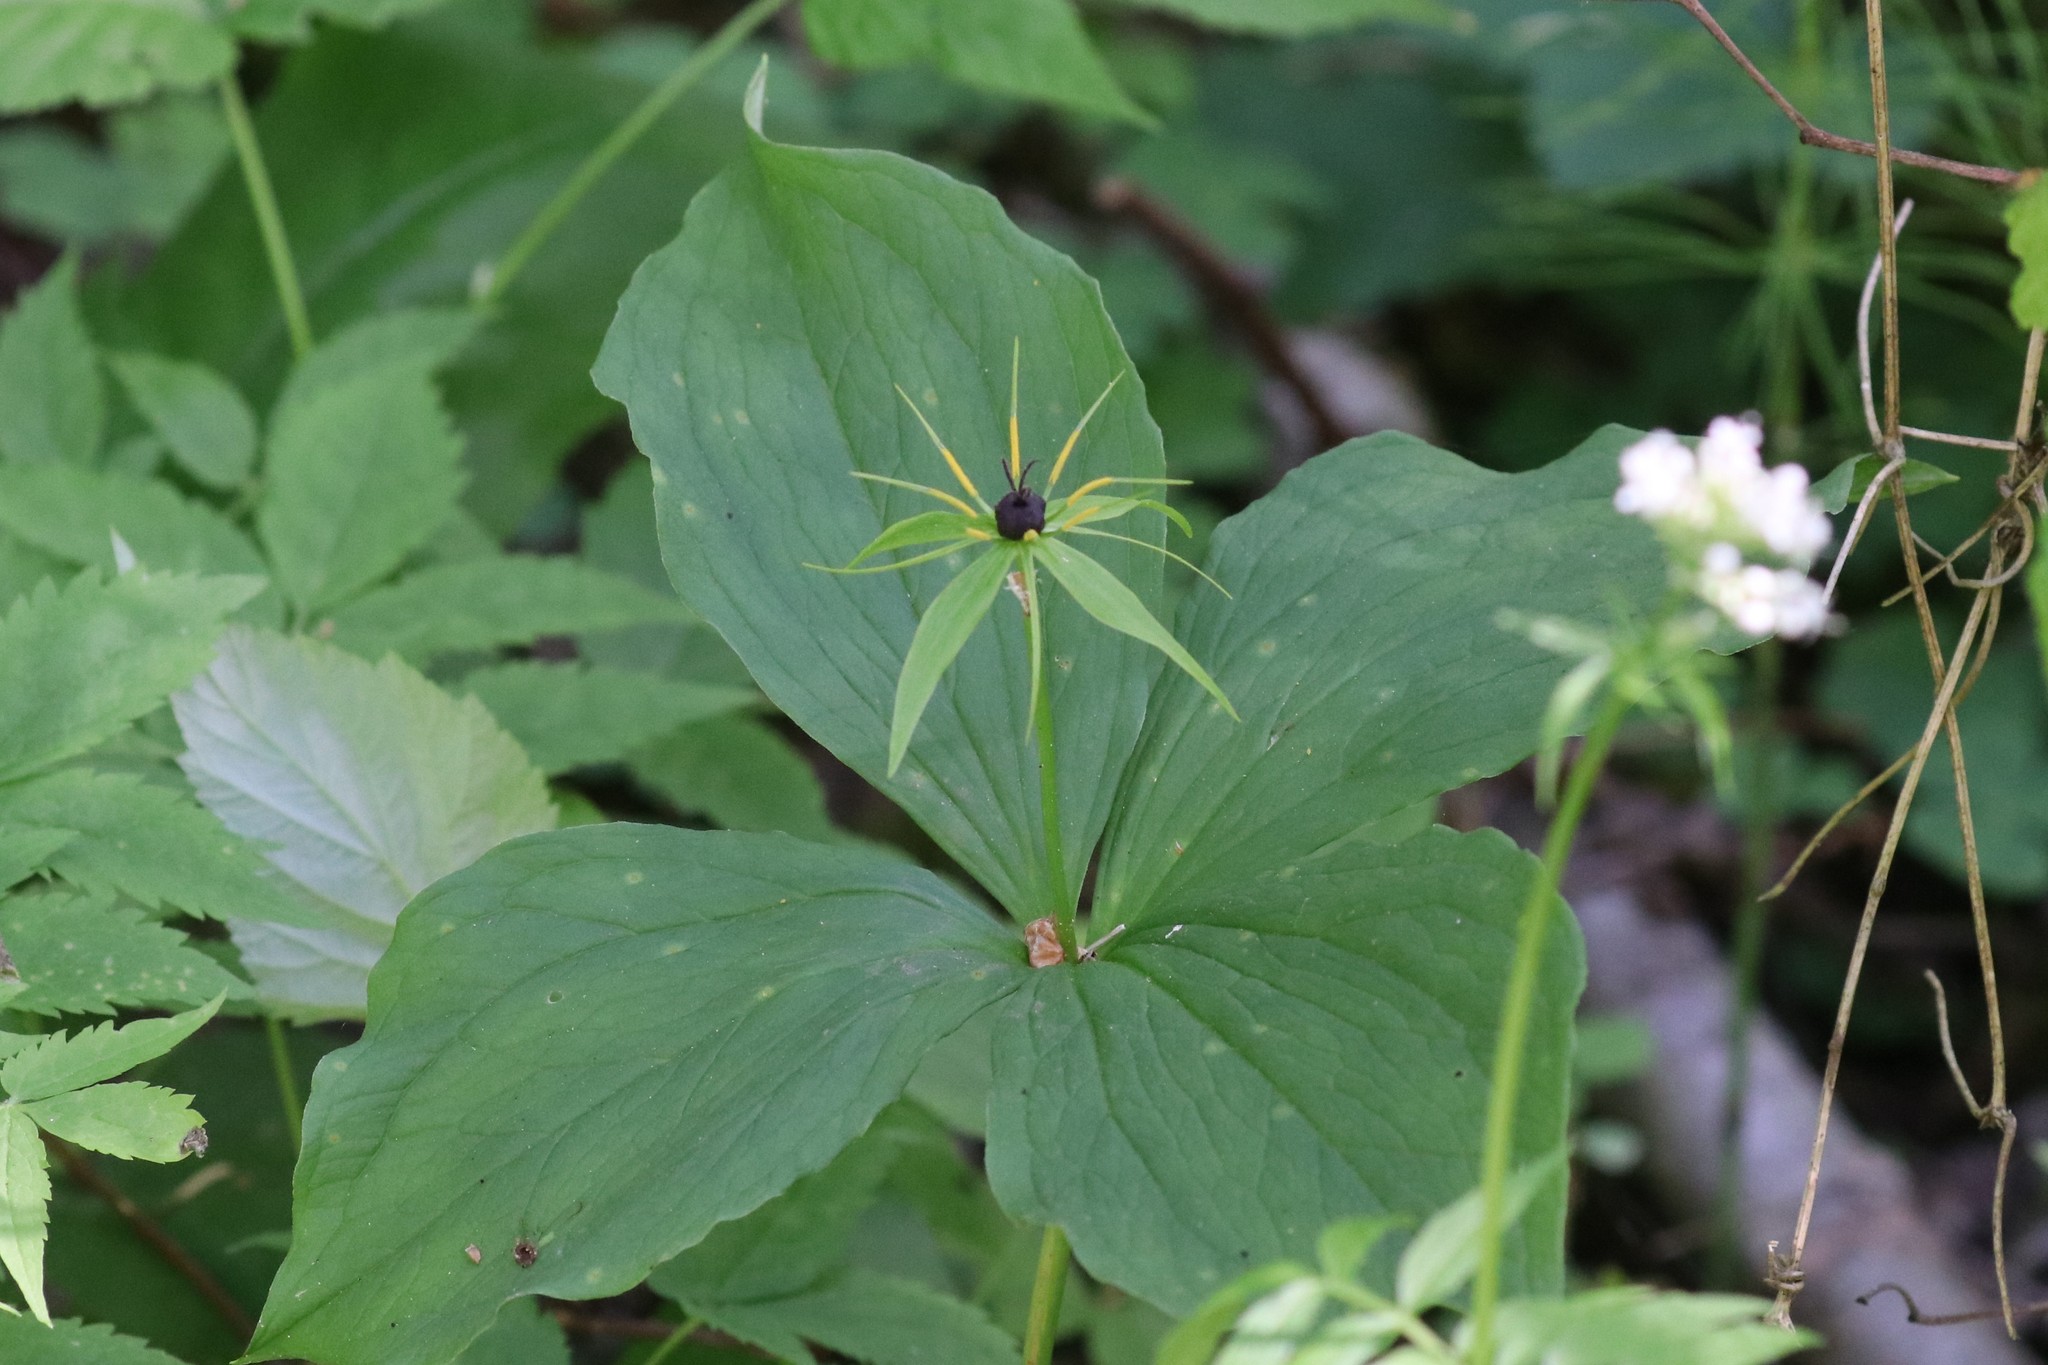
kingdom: Plantae
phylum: Tracheophyta
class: Liliopsida
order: Liliales
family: Melanthiaceae
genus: Paris
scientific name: Paris quadrifolia
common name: Herb-paris
